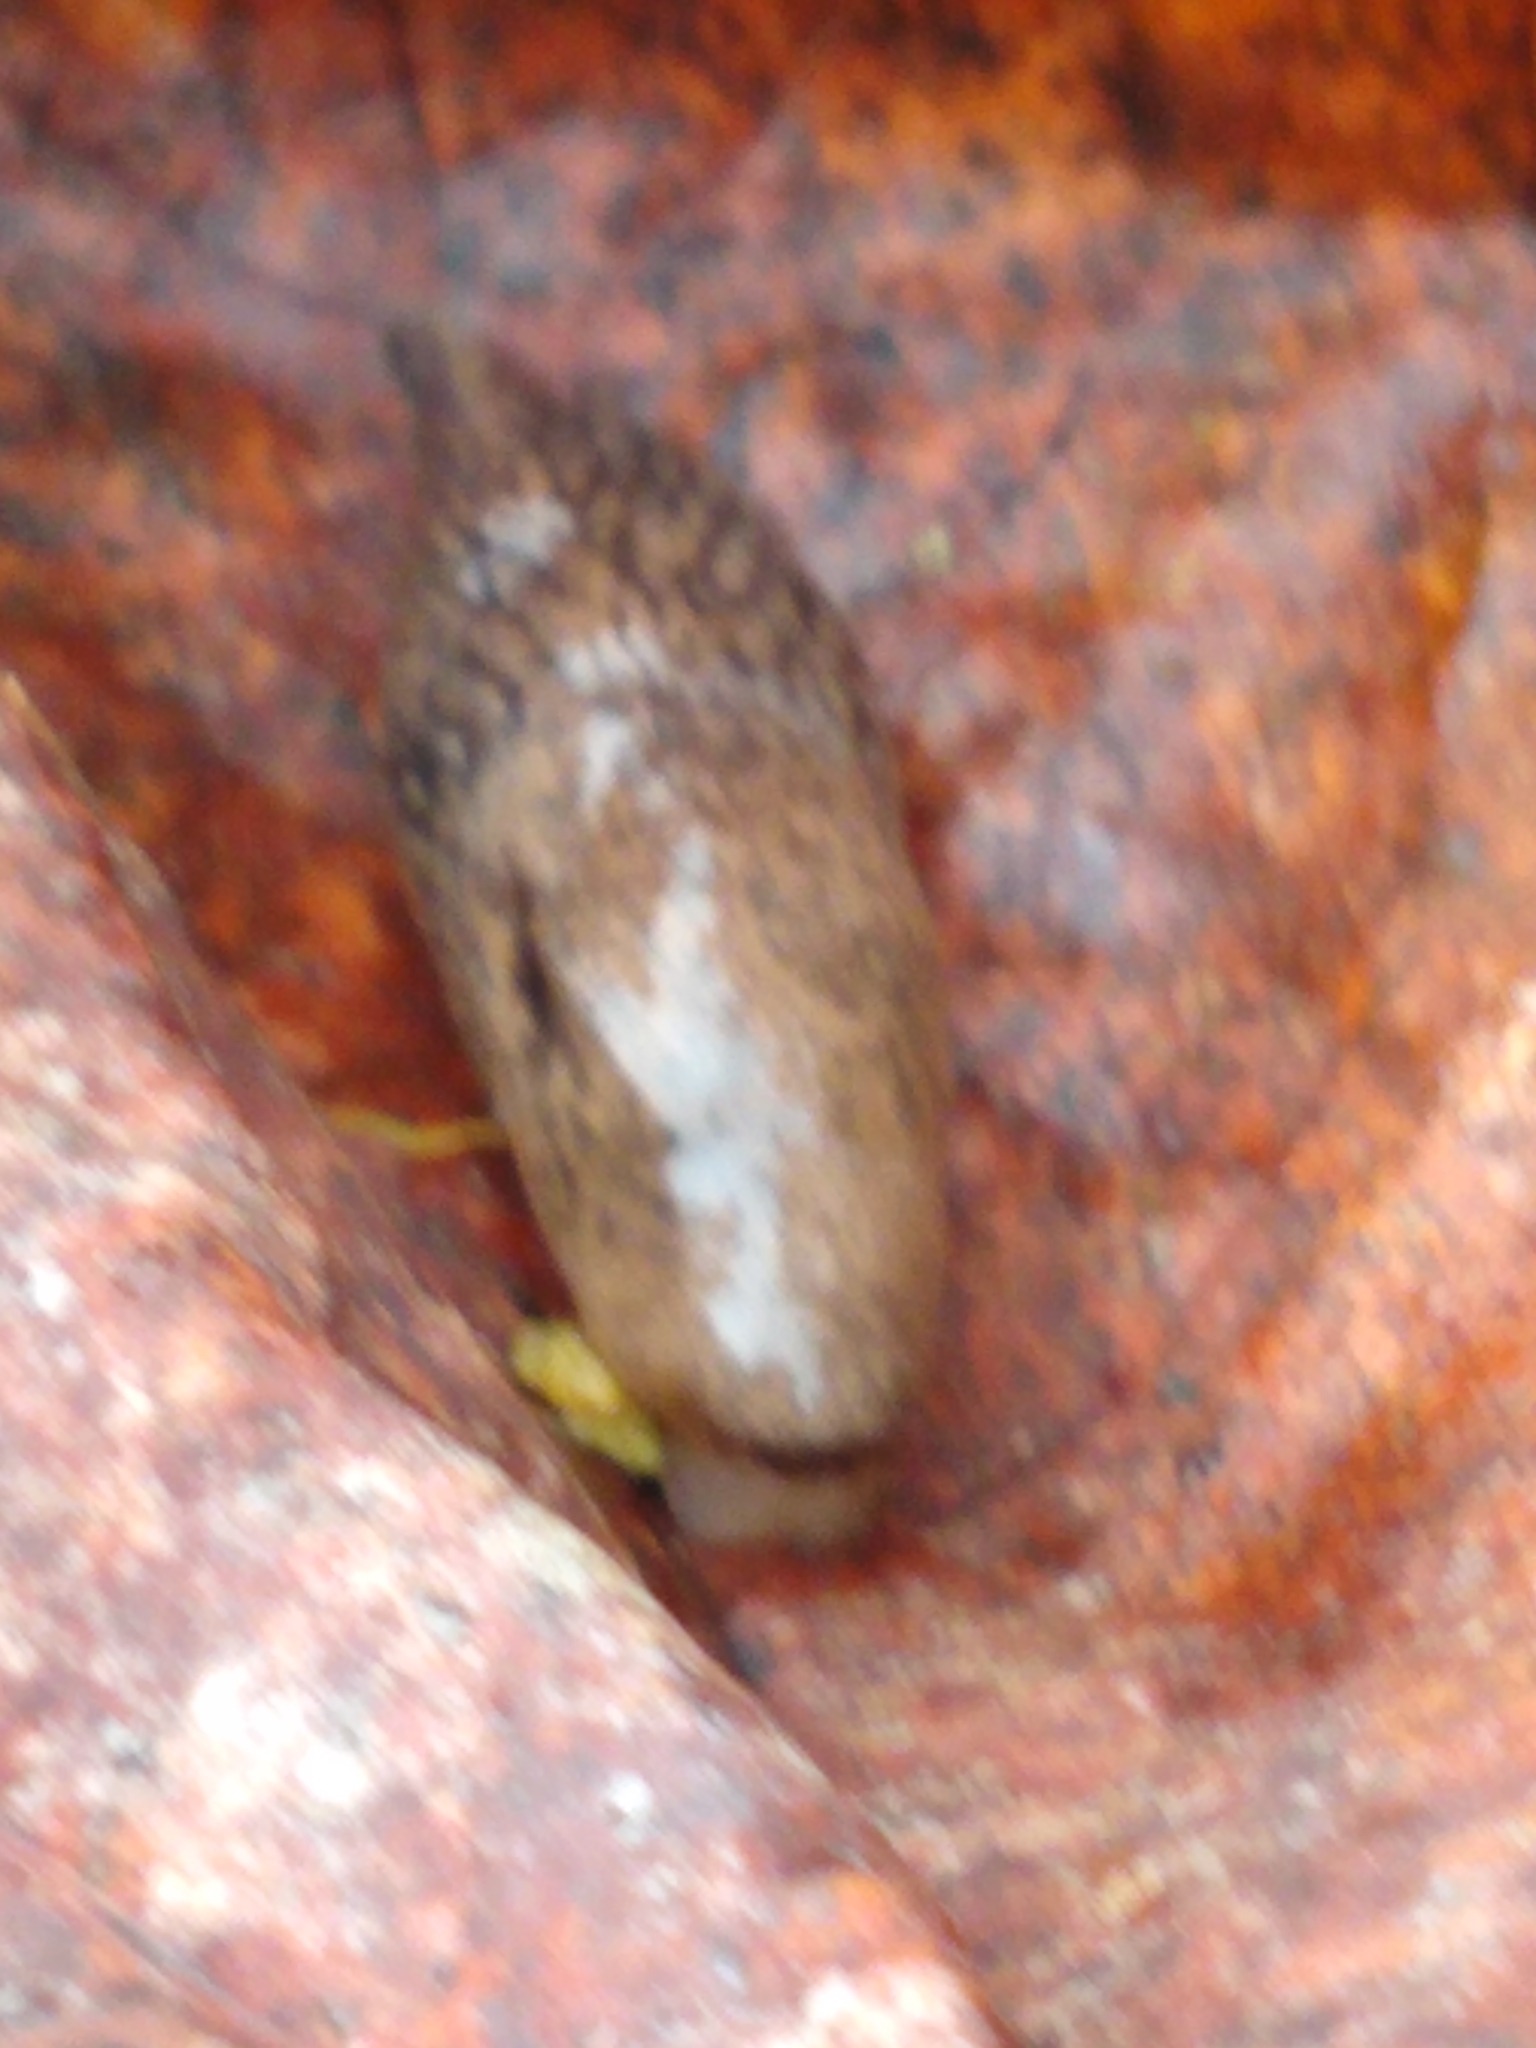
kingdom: Animalia
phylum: Mollusca
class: Gastropoda
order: Stylommatophora
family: Agriolimacidae
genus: Deroceras
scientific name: Deroceras reticulatum
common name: Gray field slug
